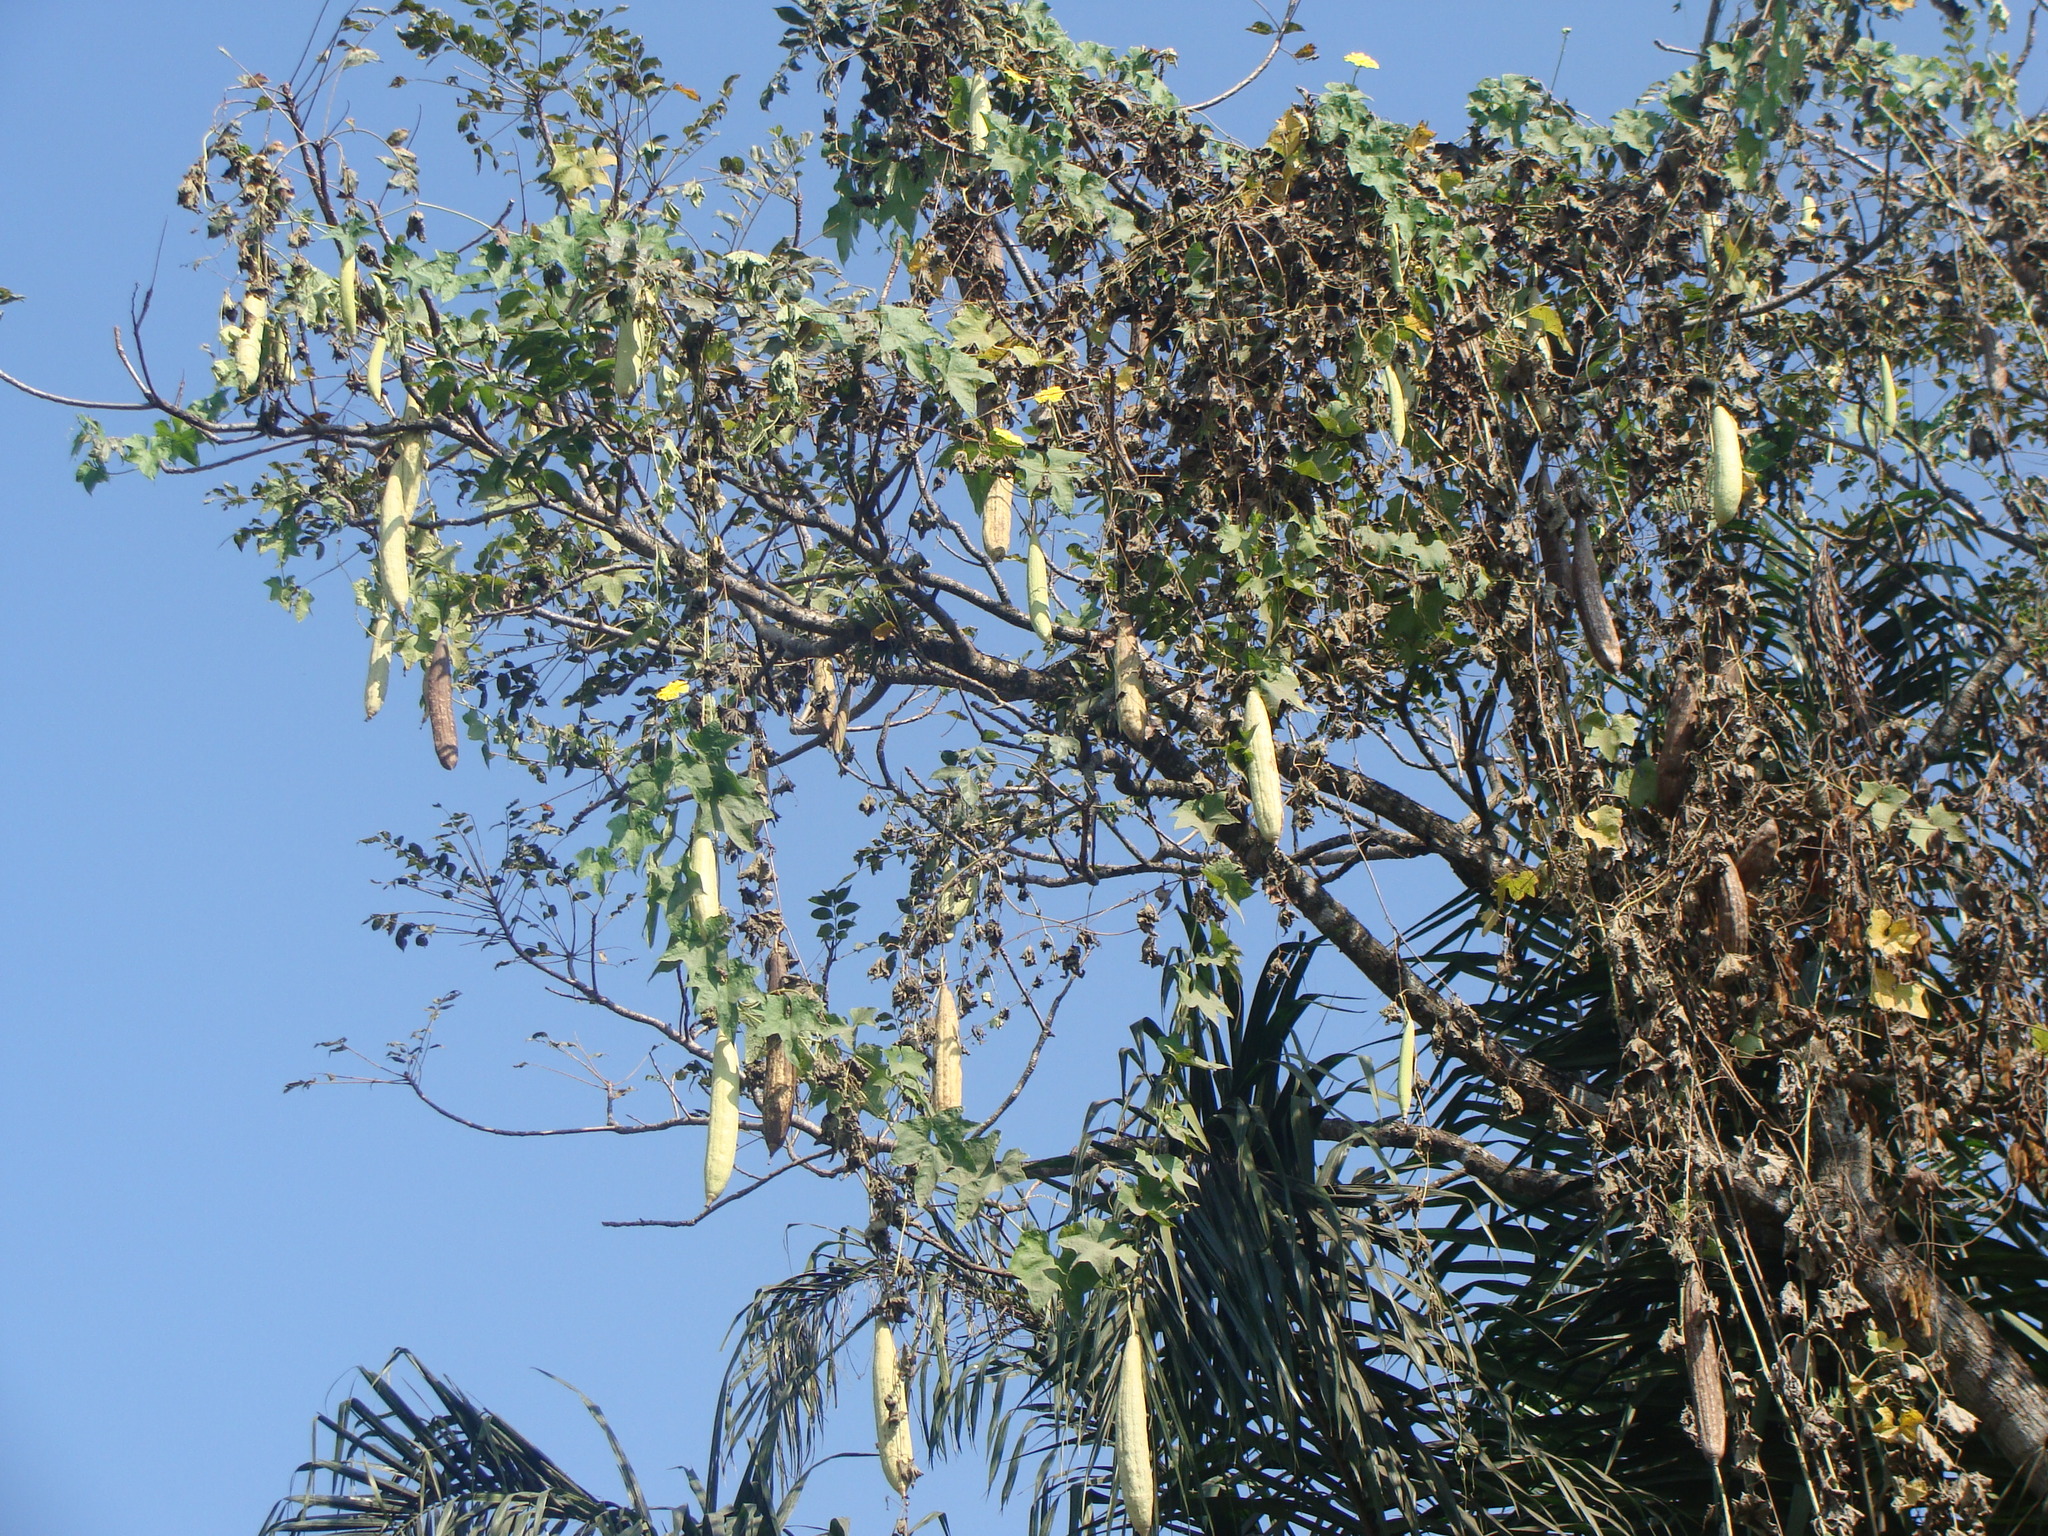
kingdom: Plantae
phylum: Tracheophyta
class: Magnoliopsida
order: Cucurbitales
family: Cucurbitaceae
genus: Luffa
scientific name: Luffa aegyptiaca
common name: Sponge gourd
